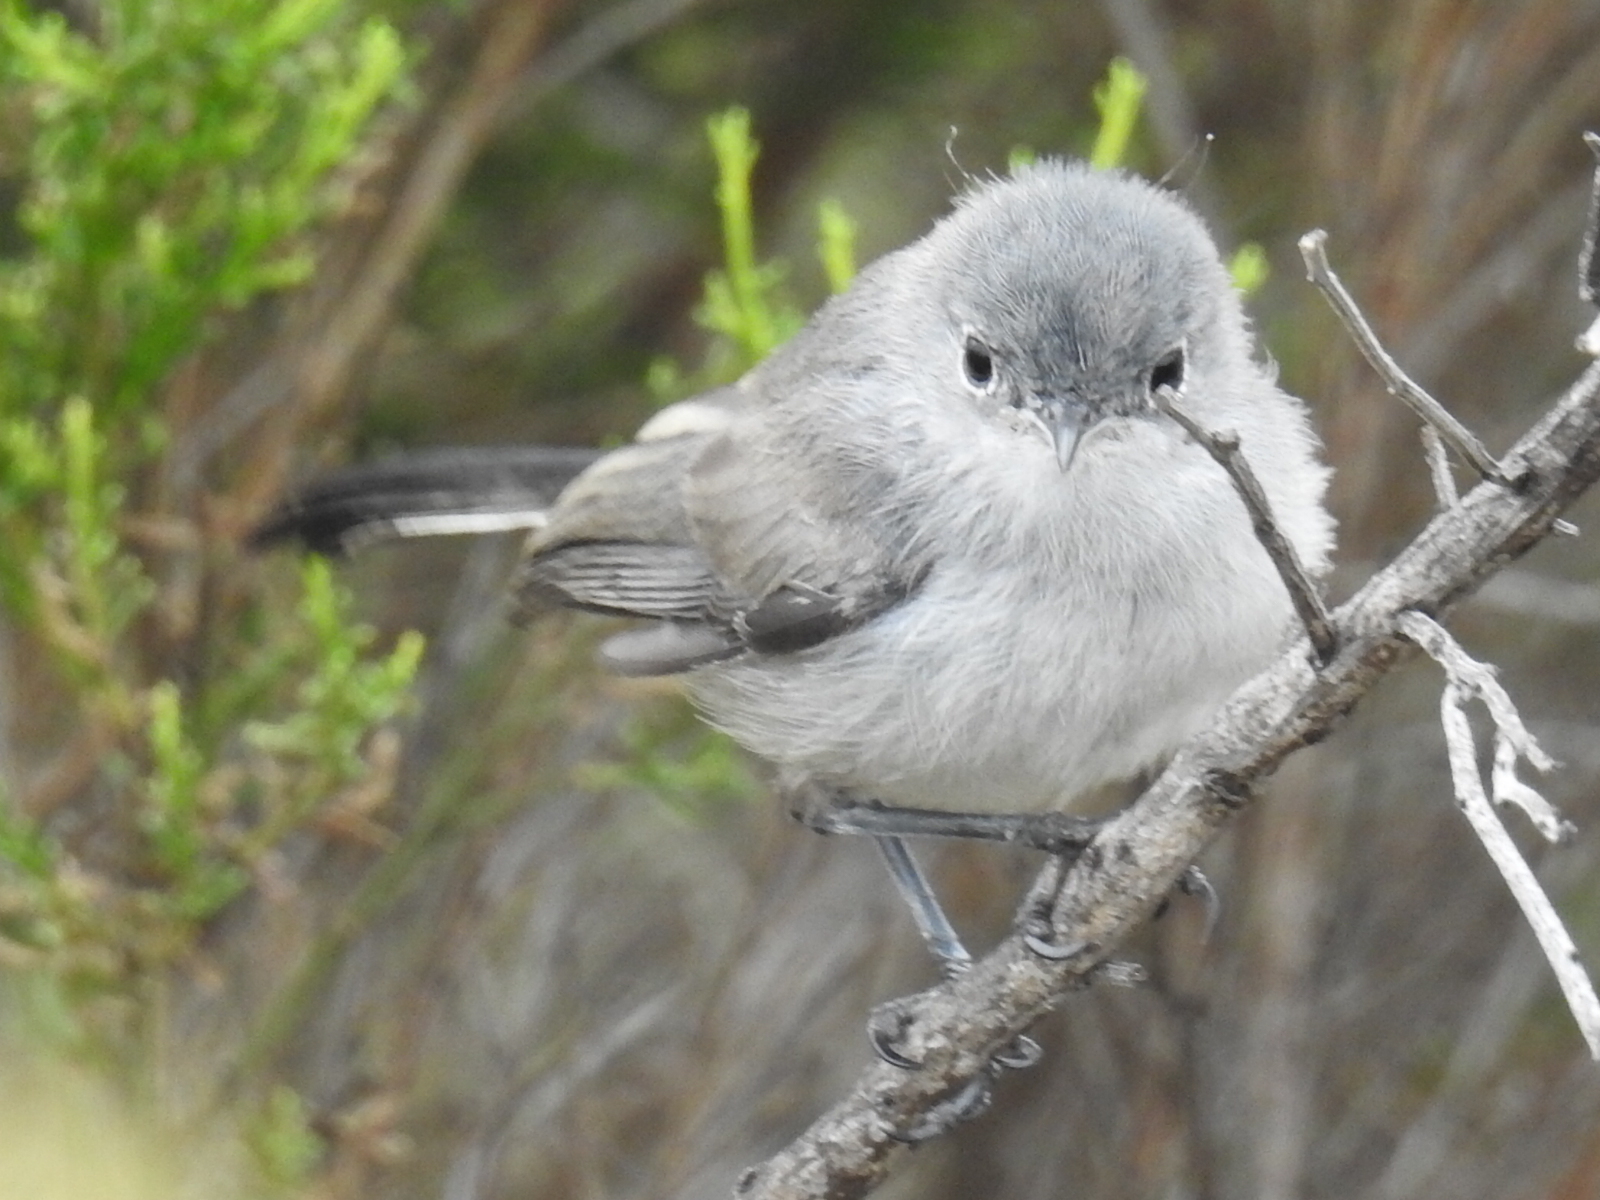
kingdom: Animalia
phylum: Chordata
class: Aves
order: Passeriformes
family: Polioptilidae
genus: Polioptila
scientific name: Polioptila californica
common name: California gnatcatcher
